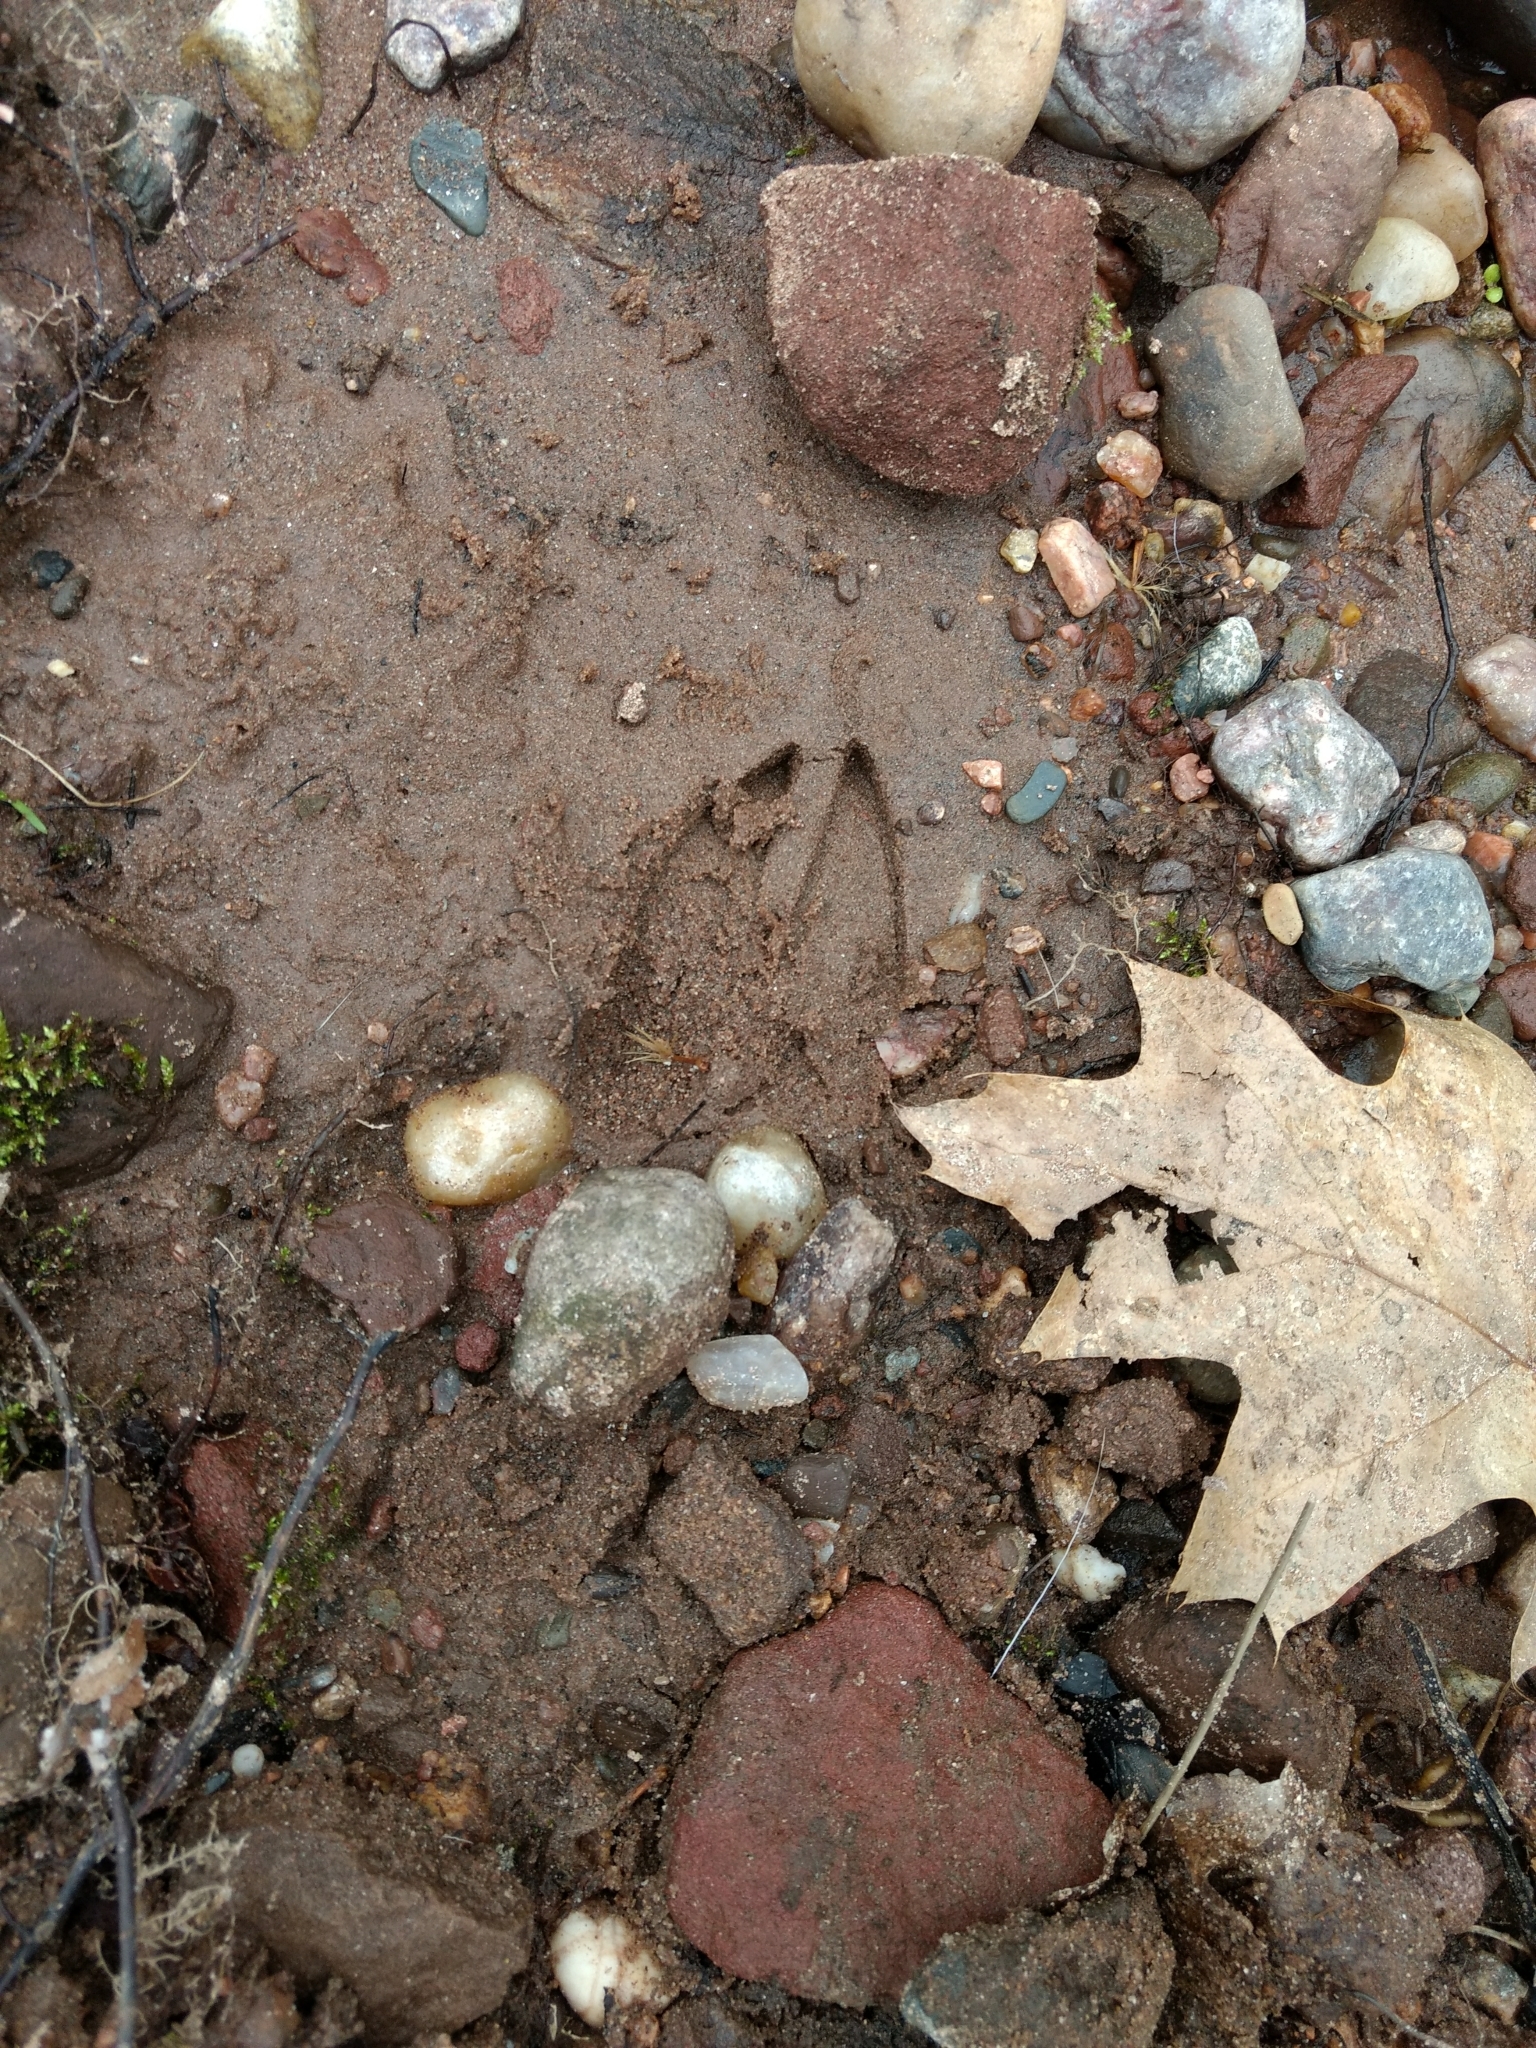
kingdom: Animalia
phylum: Chordata
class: Mammalia
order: Artiodactyla
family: Cervidae
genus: Odocoileus
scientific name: Odocoileus virginianus
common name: White-tailed deer
